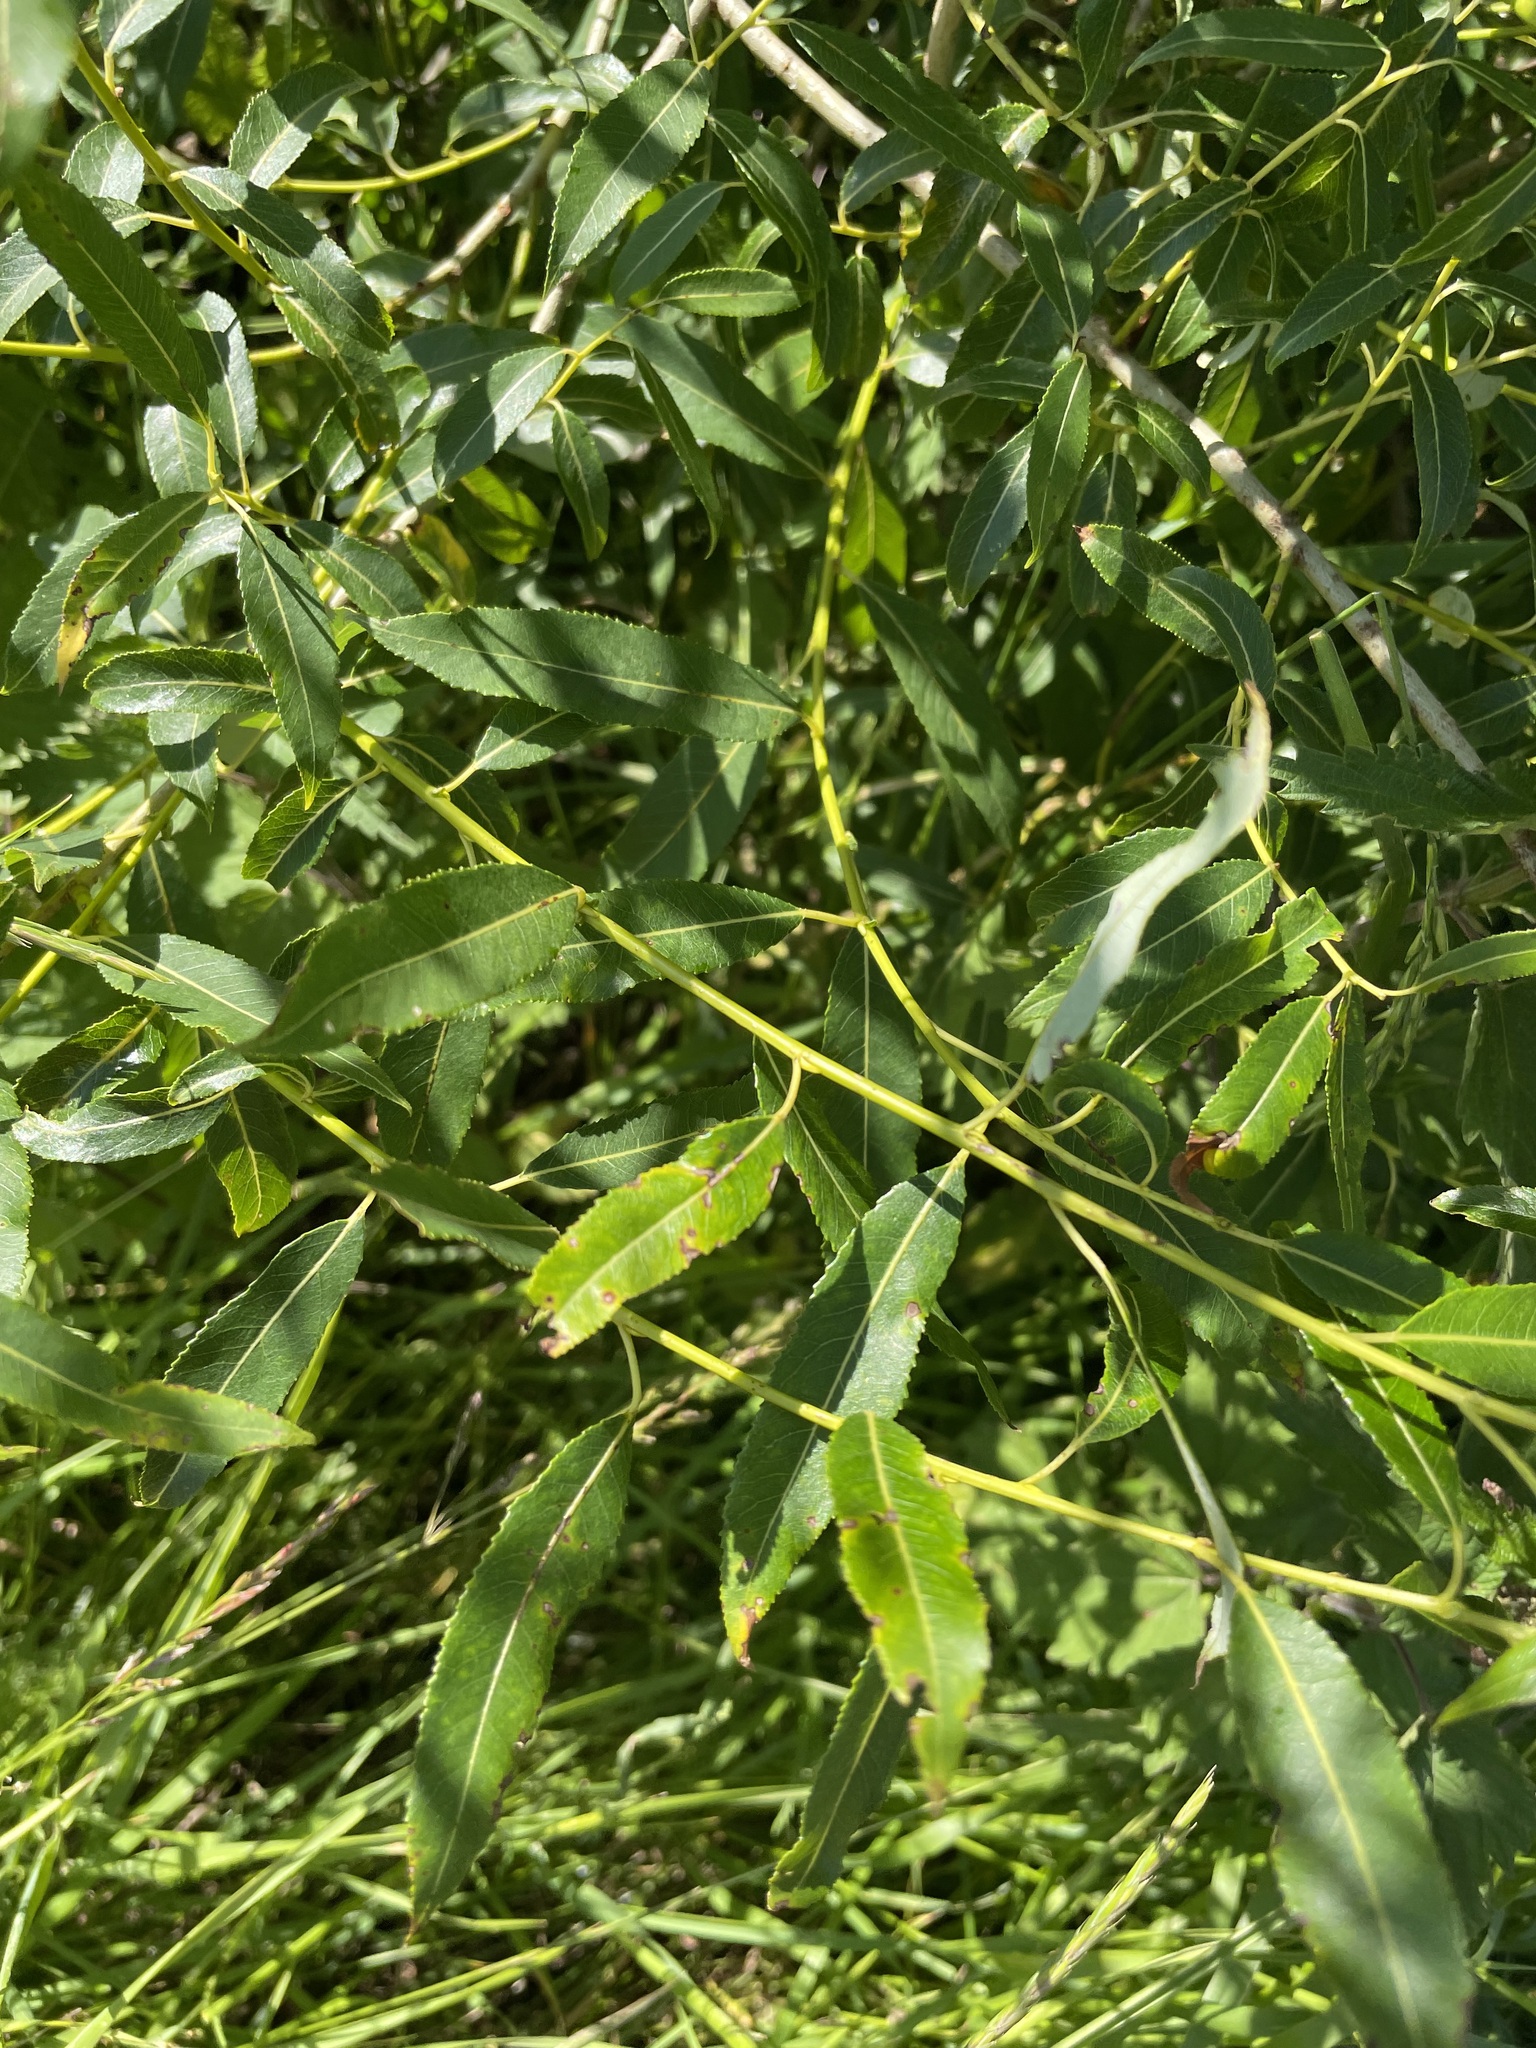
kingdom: Plantae
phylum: Tracheophyta
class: Magnoliopsida
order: Malpighiales
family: Salicaceae
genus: Salix
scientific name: Salix triandra
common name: Almond willow
